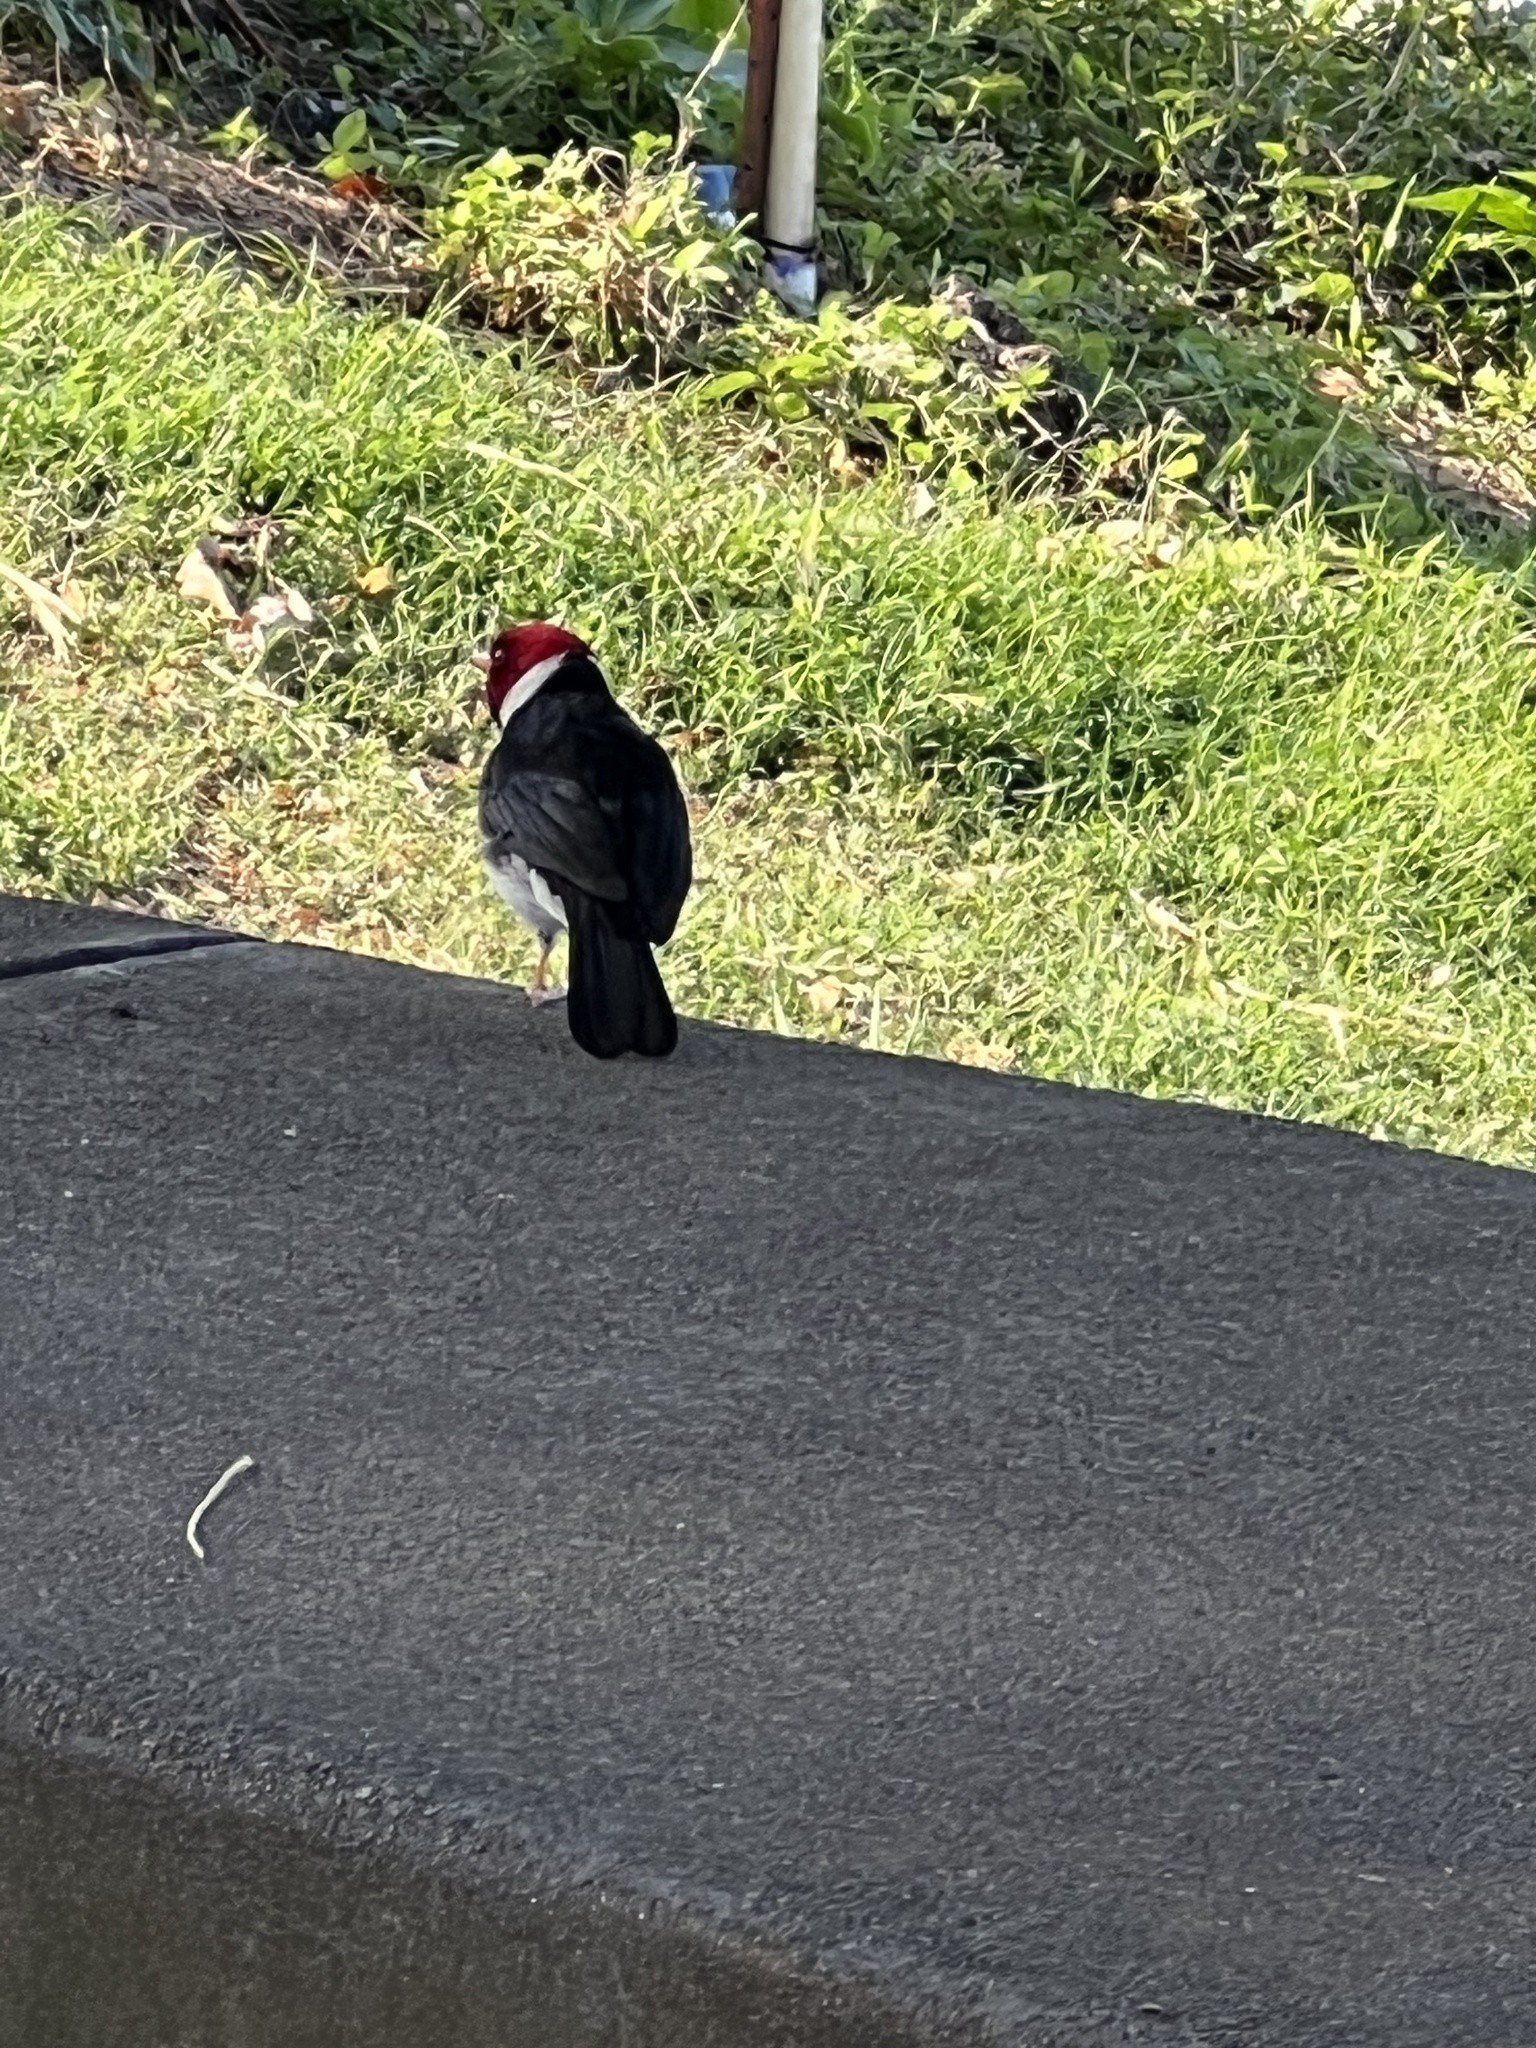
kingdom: Animalia
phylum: Chordata
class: Aves
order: Passeriformes
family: Thraupidae
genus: Paroaria
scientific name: Paroaria capitata
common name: Yellow-billed cardinal
